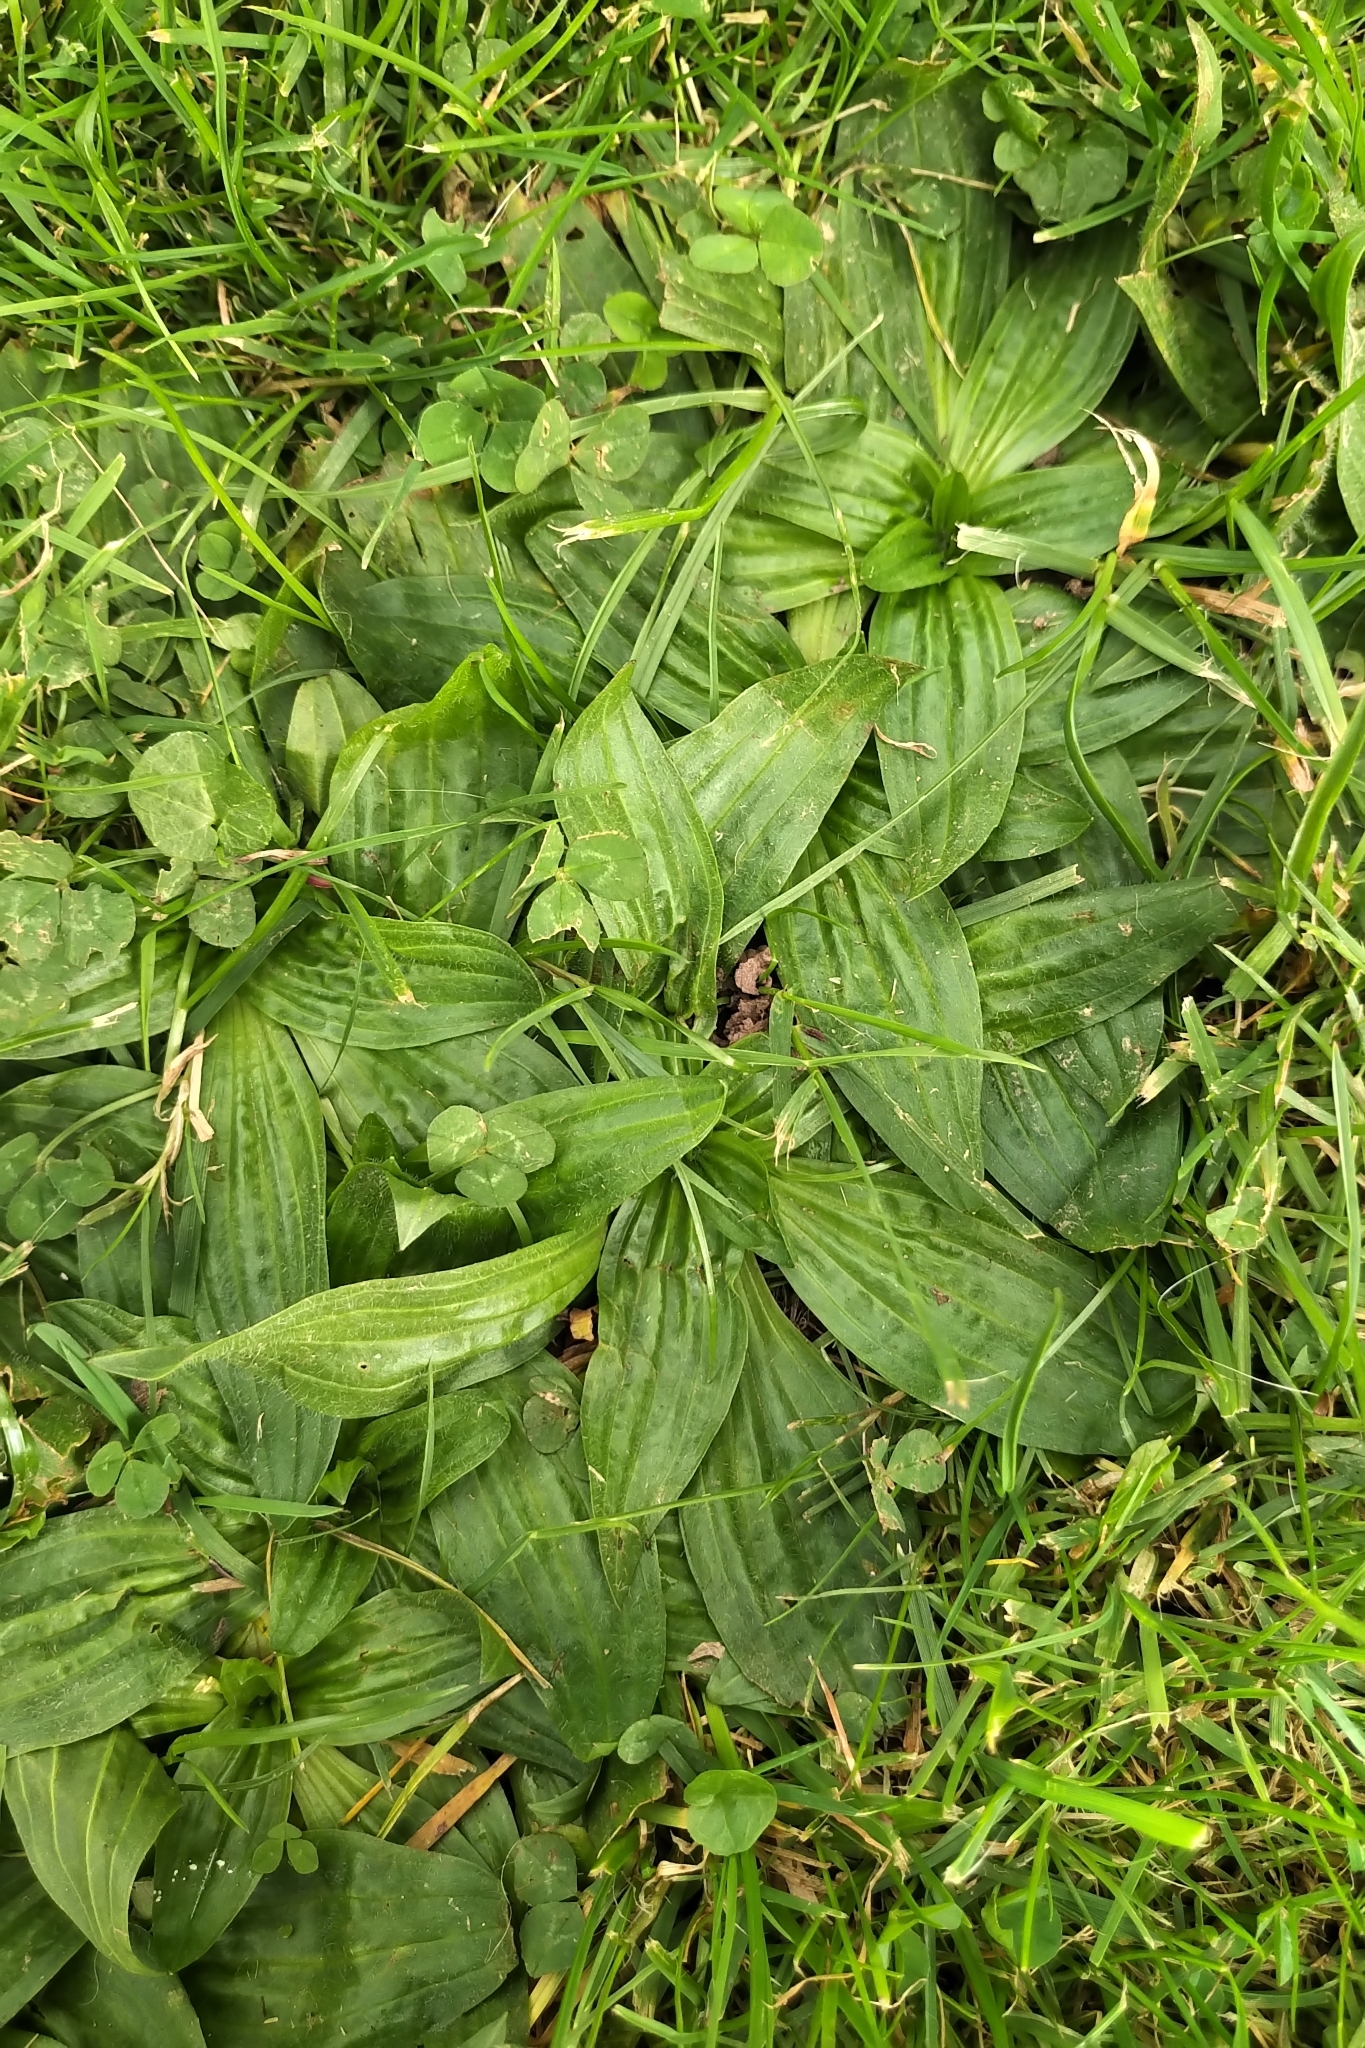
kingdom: Plantae
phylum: Tracheophyta
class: Magnoliopsida
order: Lamiales
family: Plantaginaceae
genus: Plantago
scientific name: Plantago lanceolata
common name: Ribwort plantain
